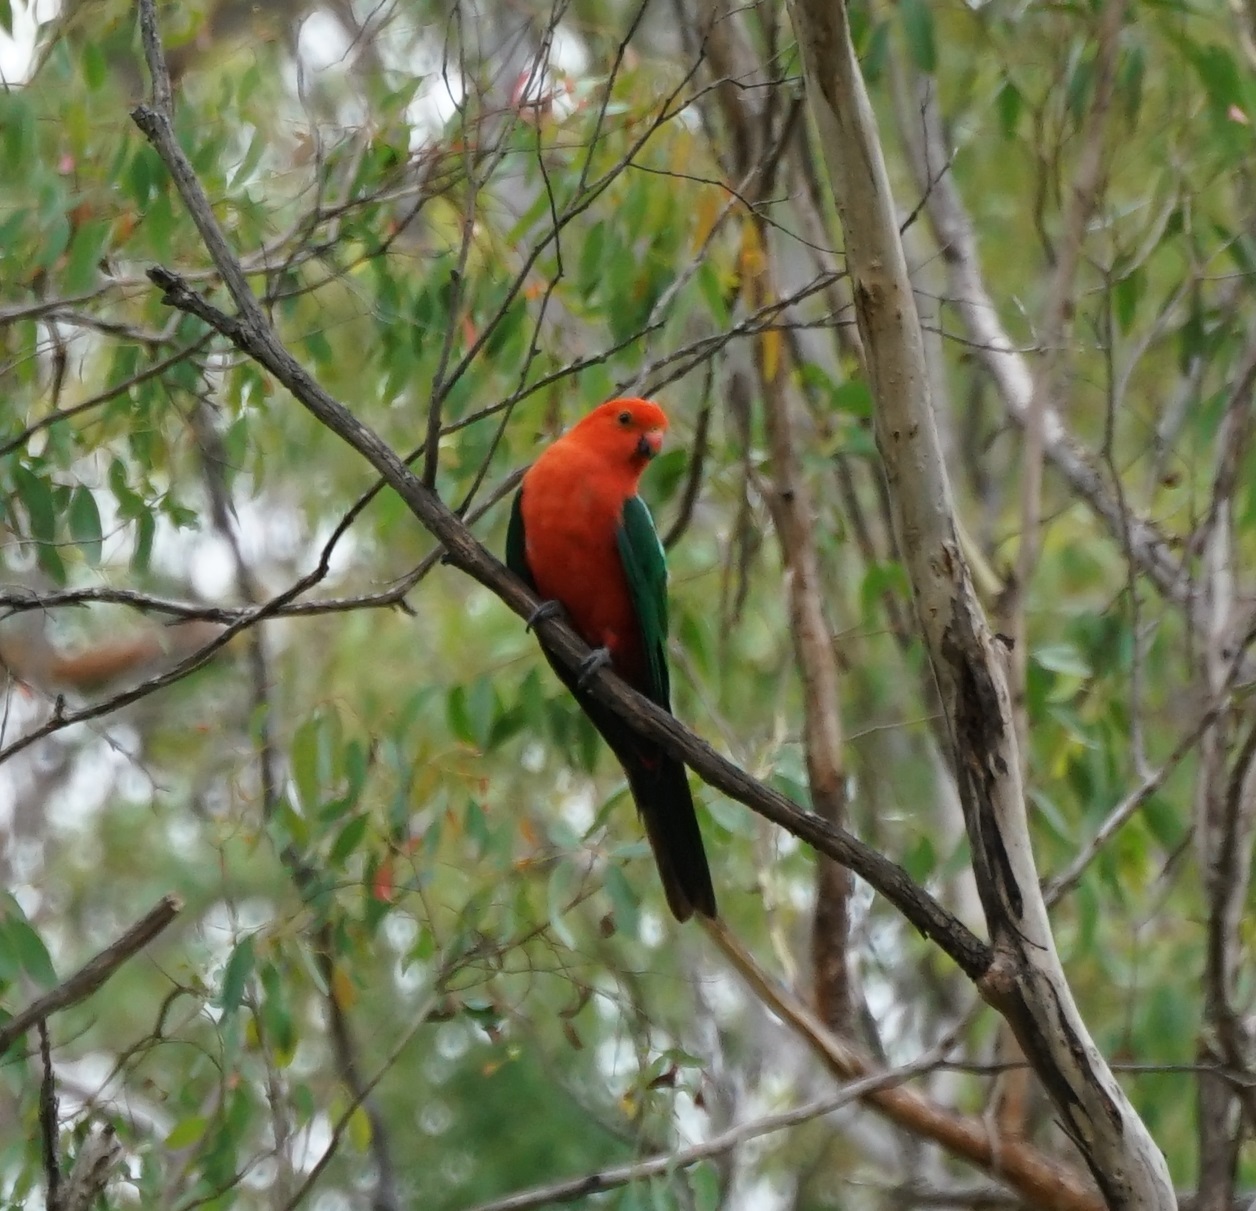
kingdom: Animalia
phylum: Chordata
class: Aves
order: Psittaciformes
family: Psittacidae
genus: Alisterus
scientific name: Alisterus scapularis
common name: Australian king parrot
